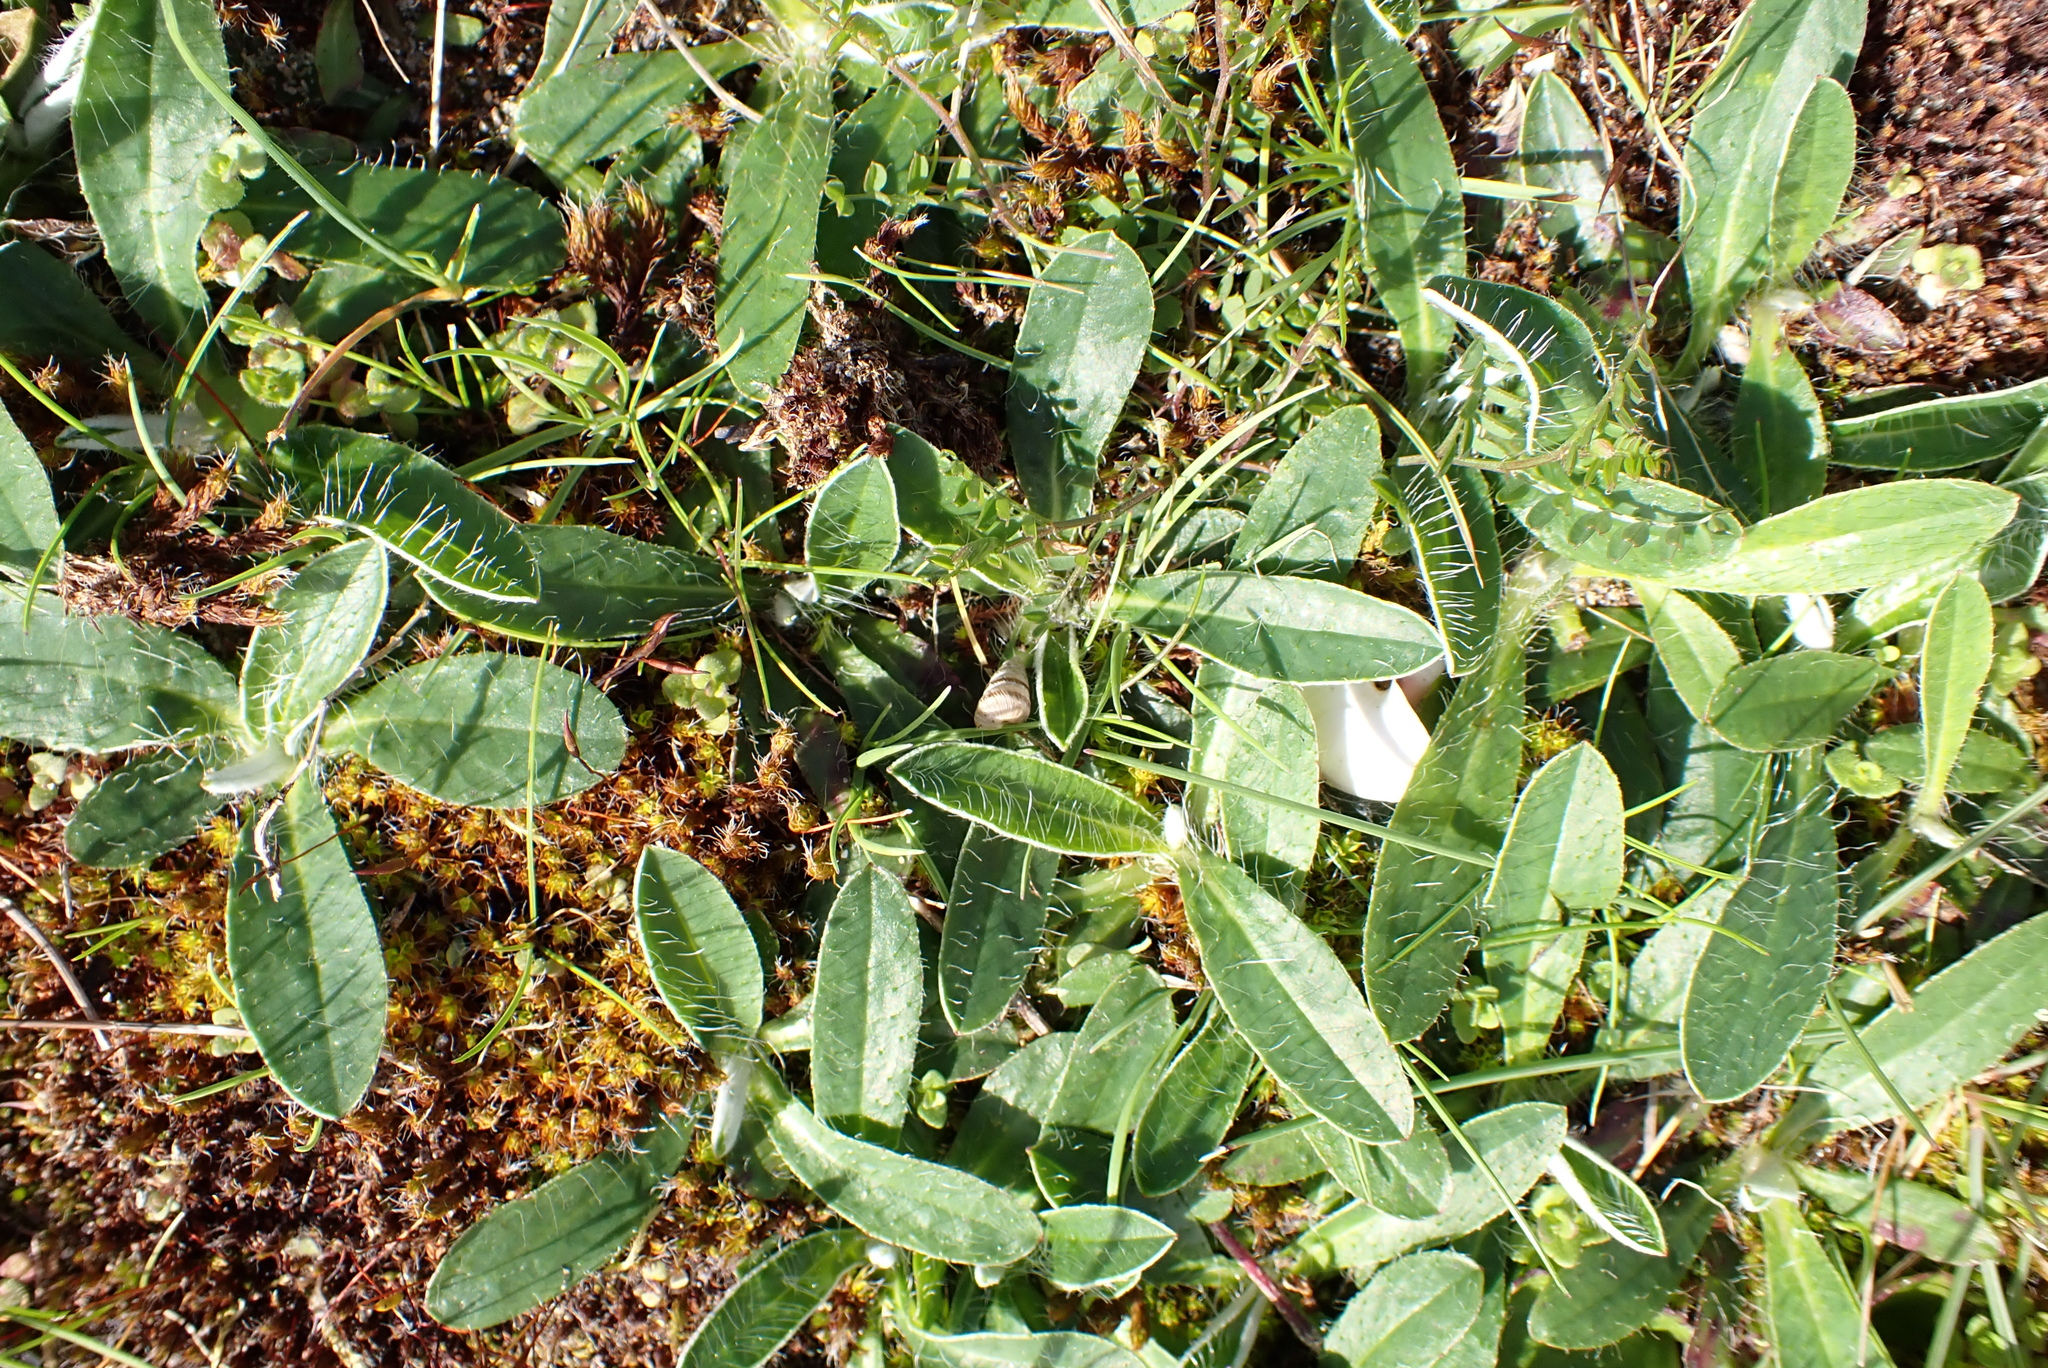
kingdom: Plantae
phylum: Tracheophyta
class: Magnoliopsida
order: Asterales
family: Asteraceae
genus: Pilosella
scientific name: Pilosella officinarum
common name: Mouse-ear hawkweed
